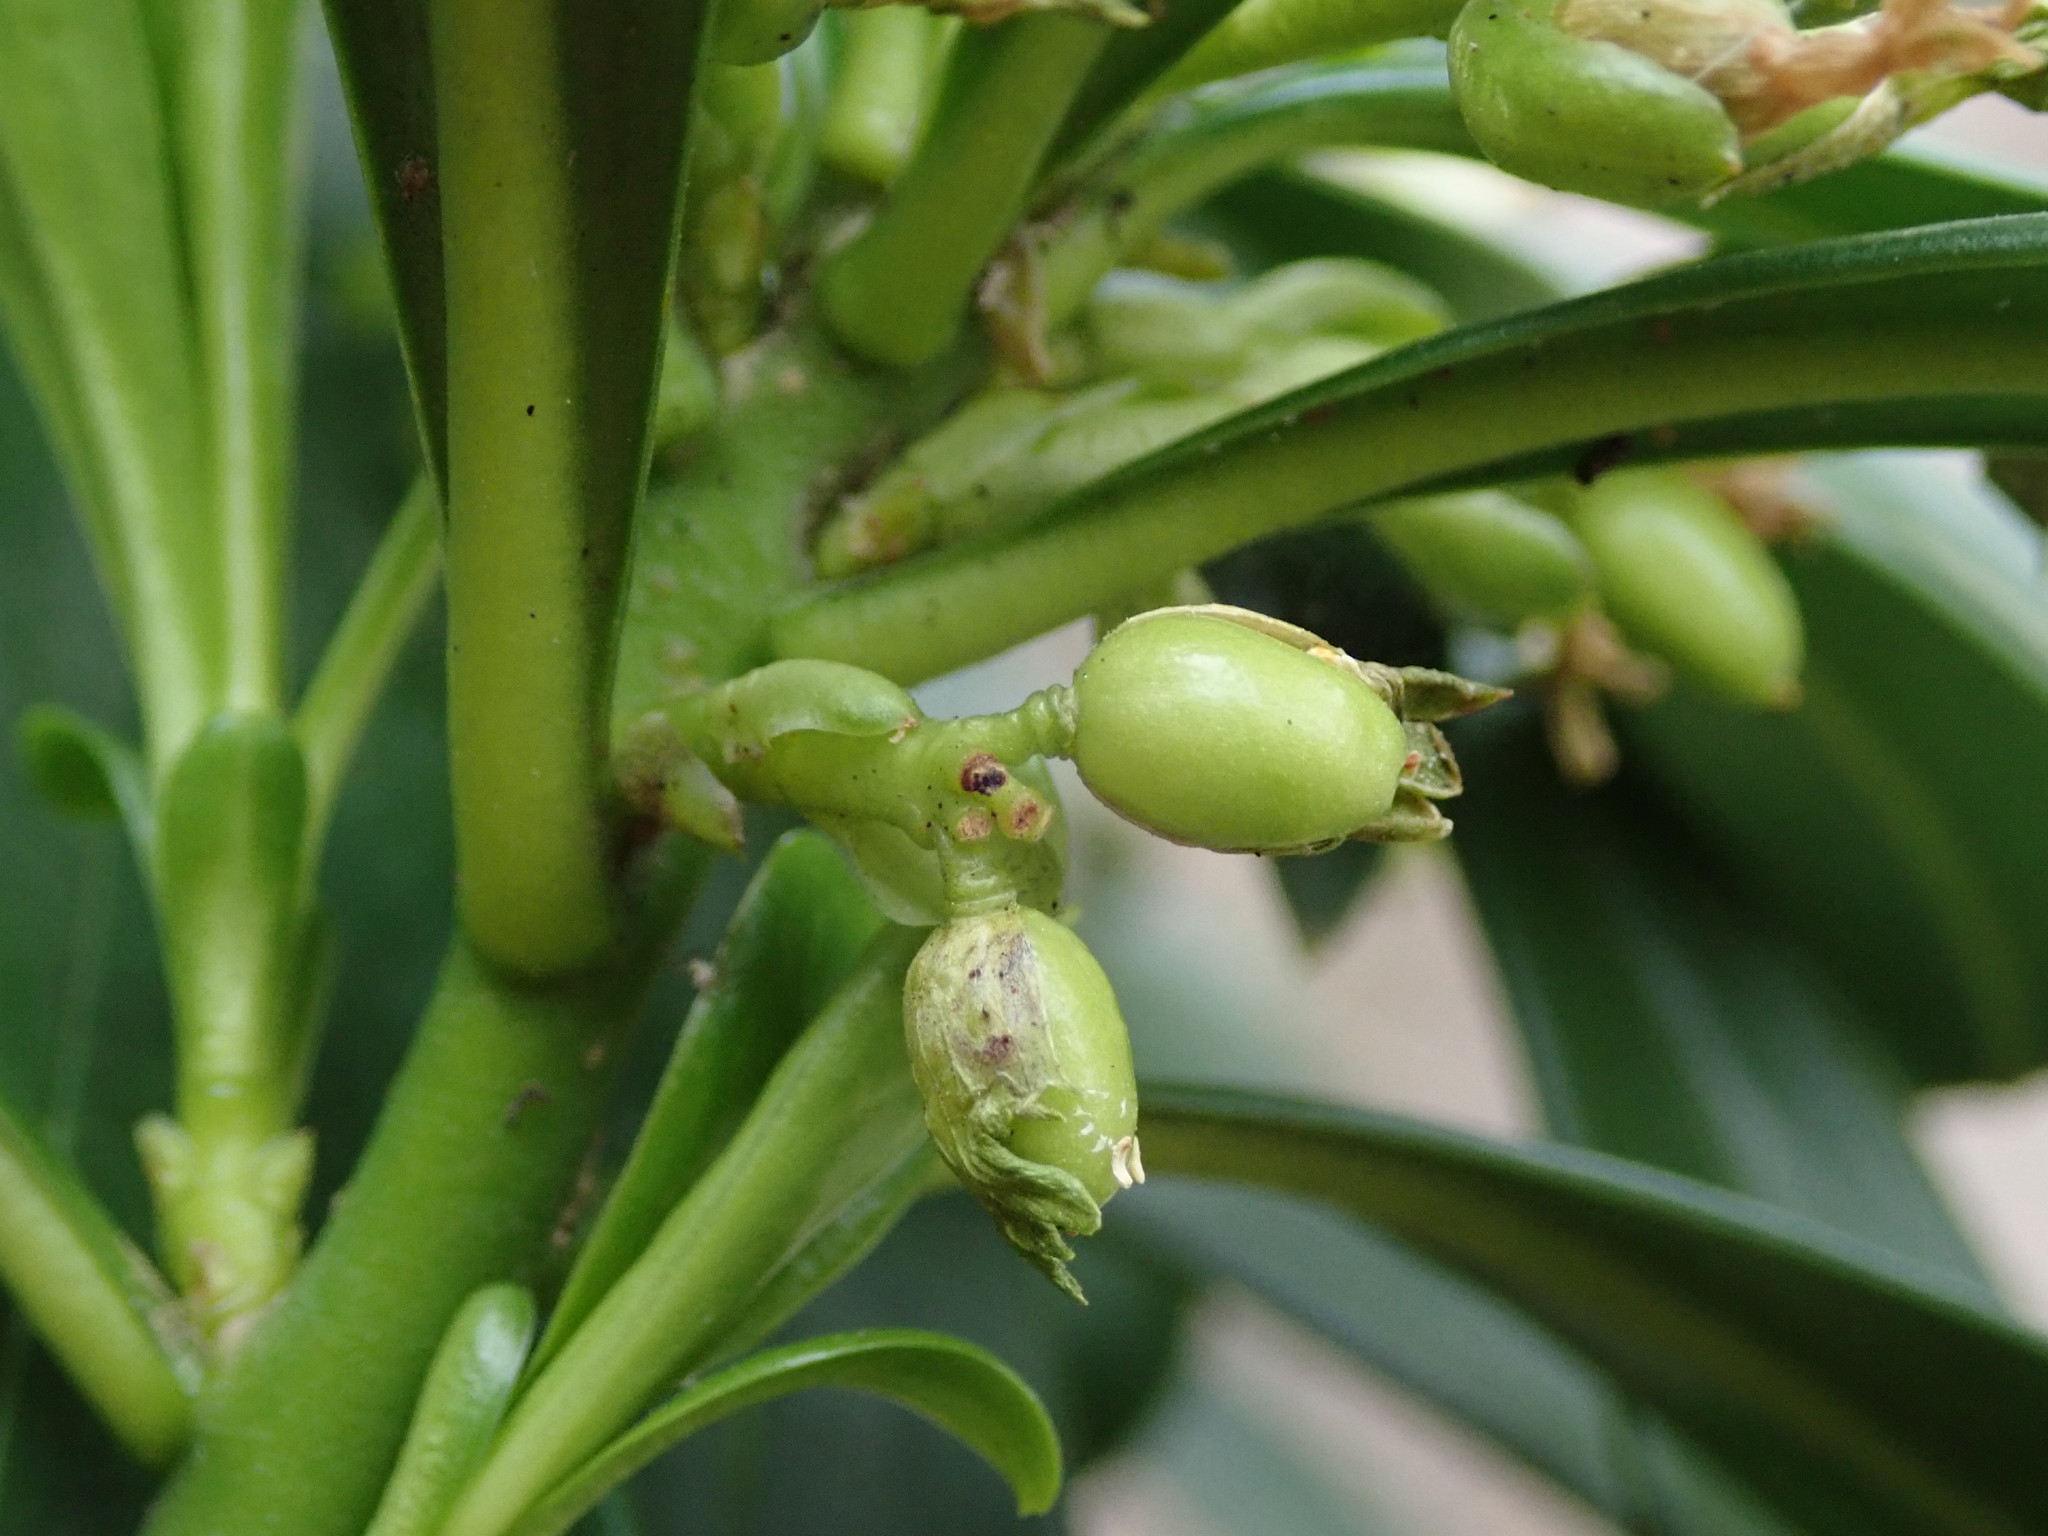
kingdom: Plantae
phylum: Tracheophyta
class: Magnoliopsida
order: Malvales
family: Thymelaeaceae
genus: Daphne
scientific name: Daphne laureola
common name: Spurge-laurel
